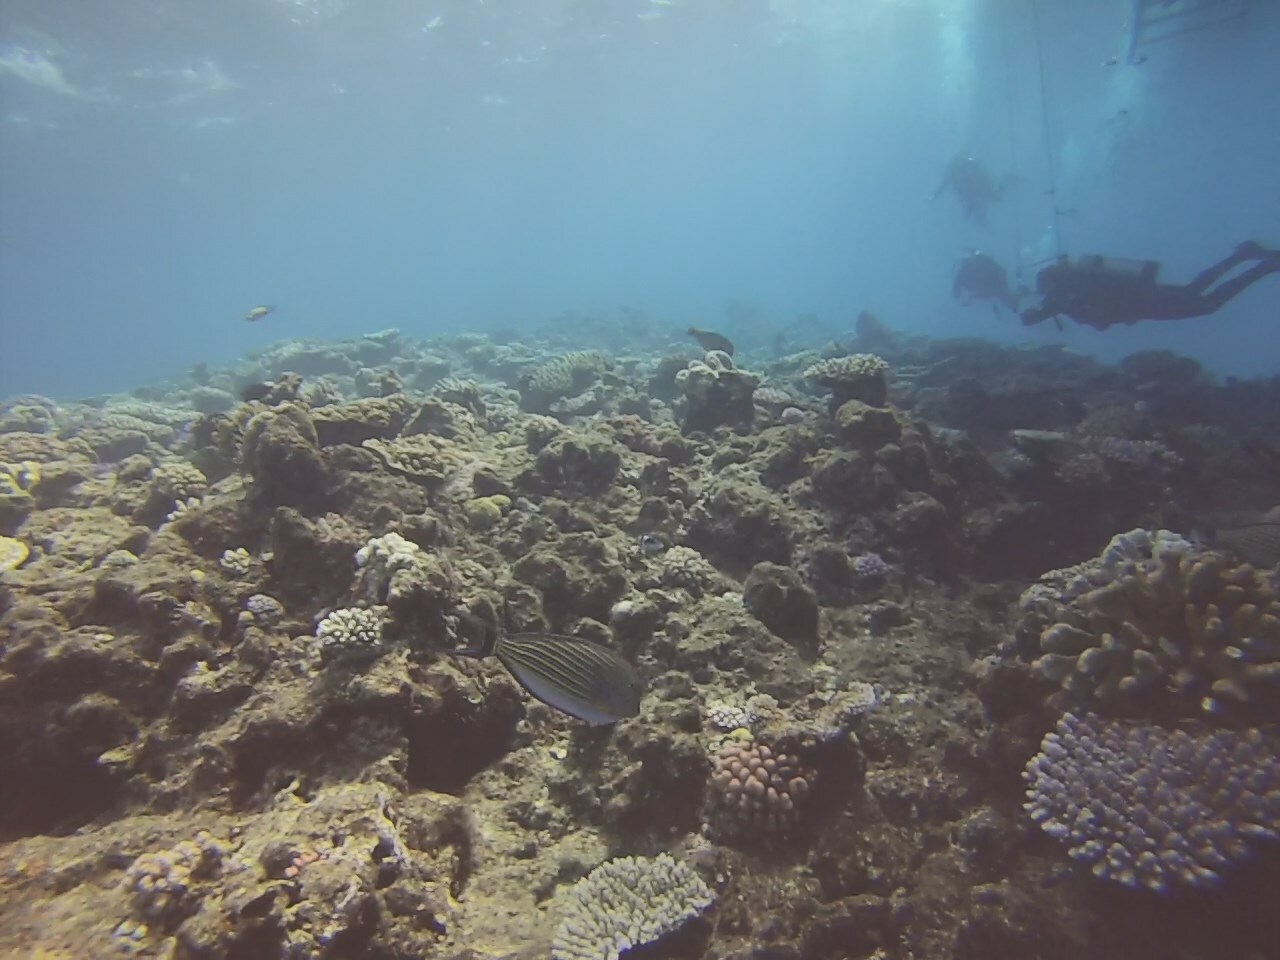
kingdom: Animalia
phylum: Chordata
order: Perciformes
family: Acanthuridae
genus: Acanthurus
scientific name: Acanthurus lineatus
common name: Striped surgeonfish
